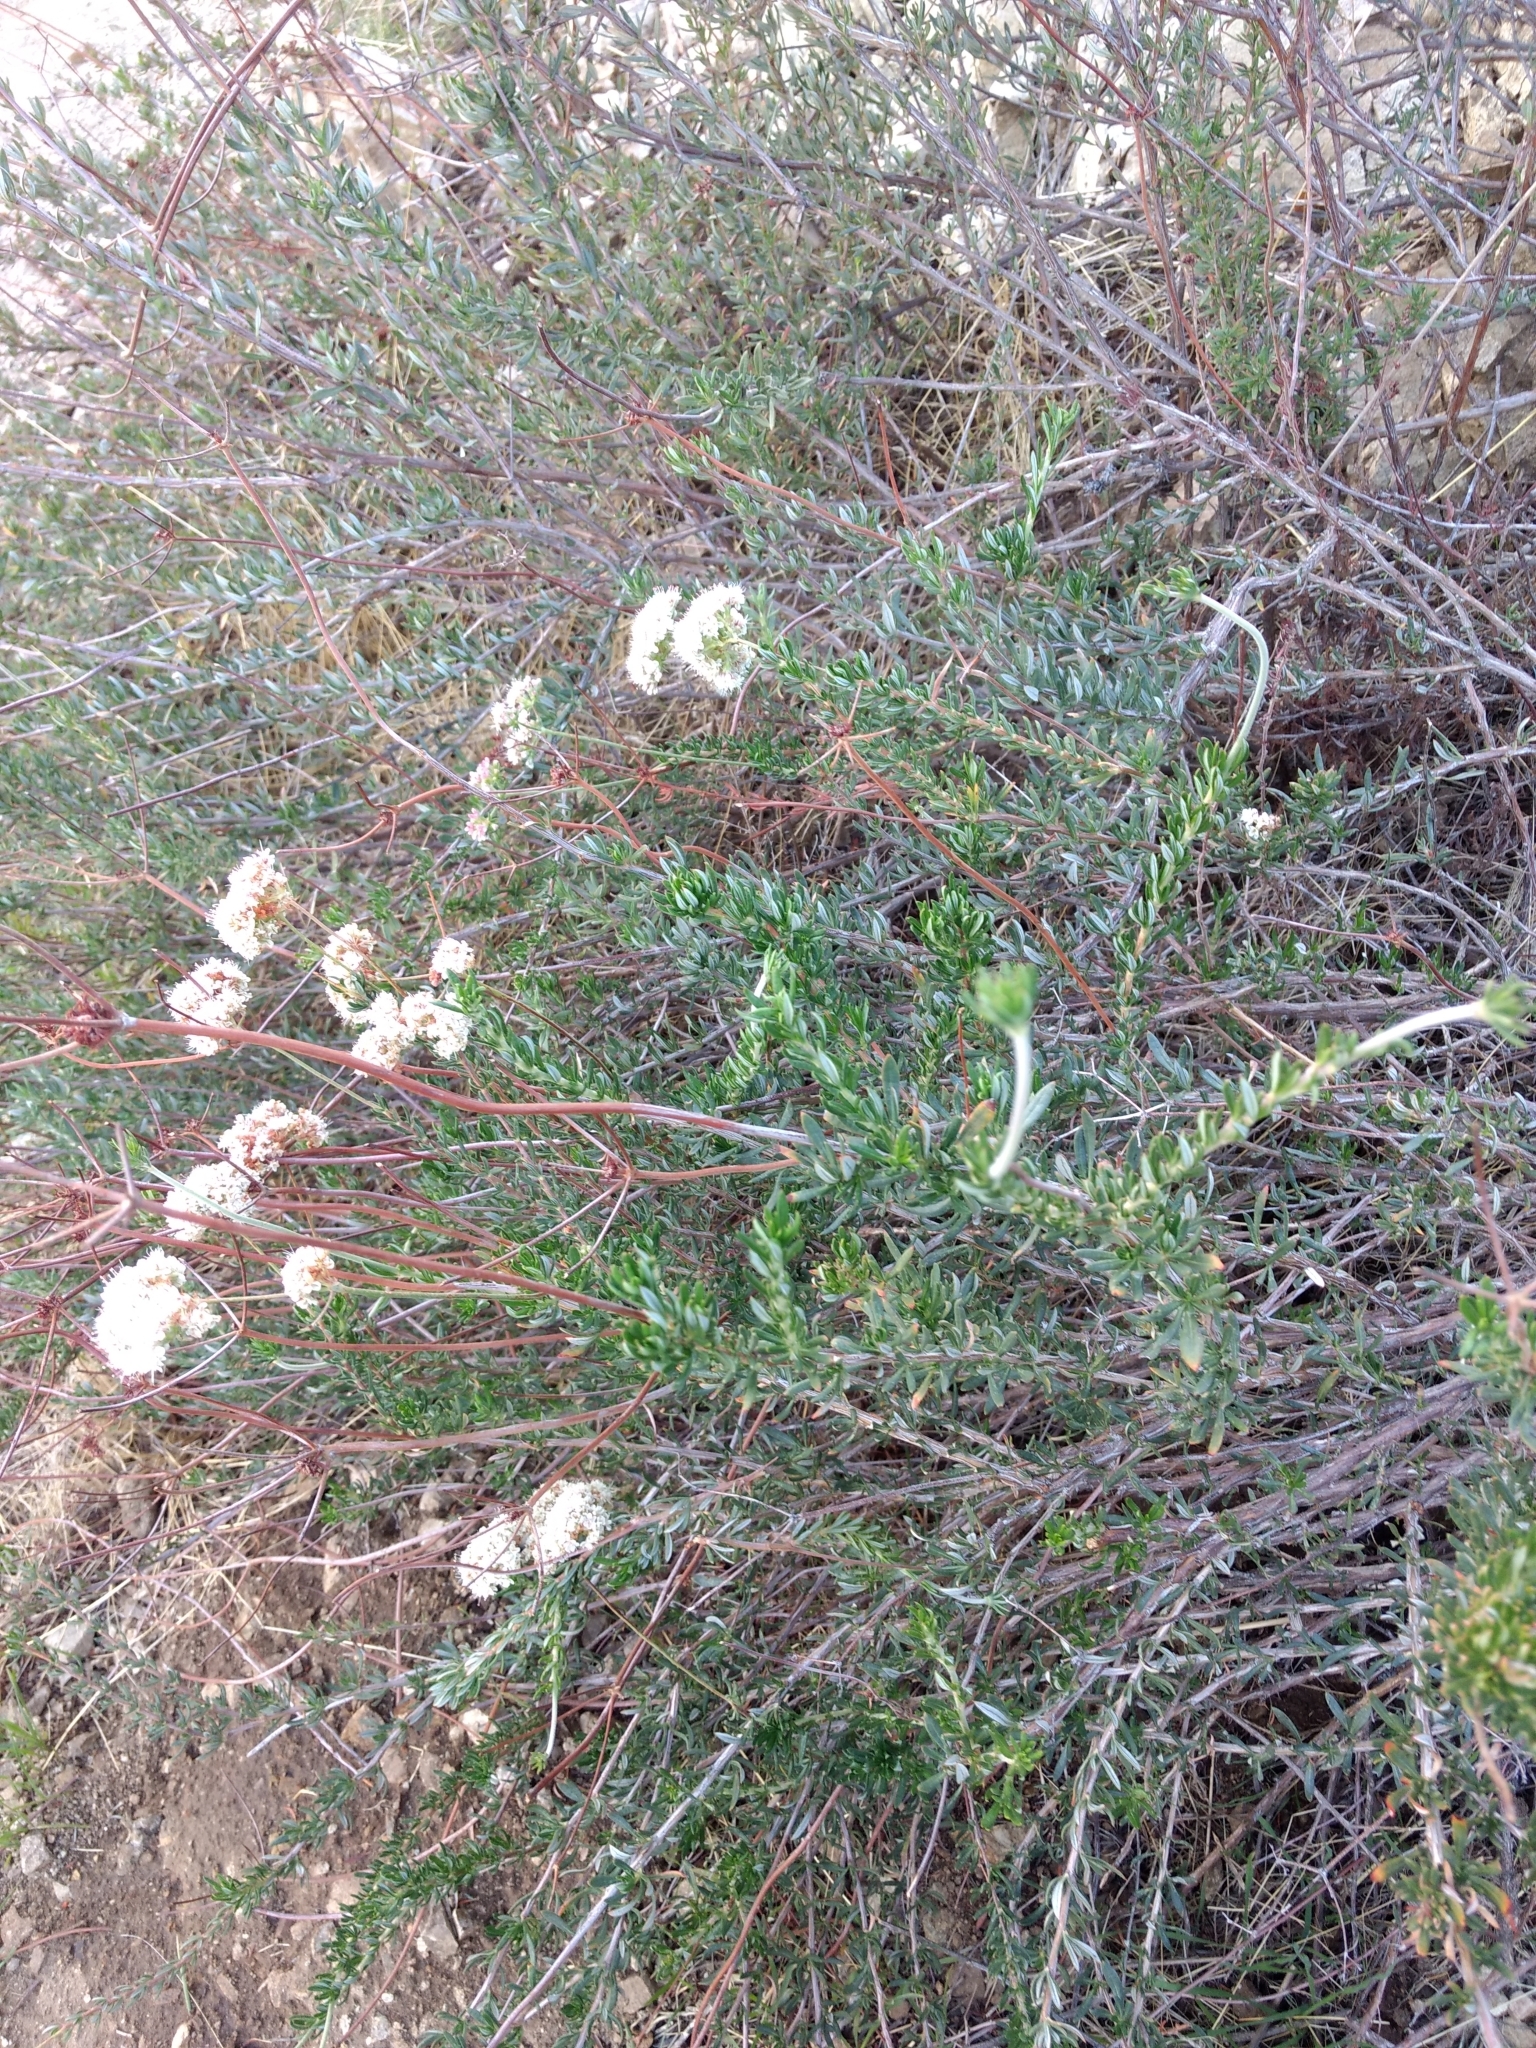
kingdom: Plantae
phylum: Tracheophyta
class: Magnoliopsida
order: Caryophyllales
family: Polygonaceae
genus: Eriogonum
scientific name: Eriogonum fasciculatum
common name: California wild buckwheat
